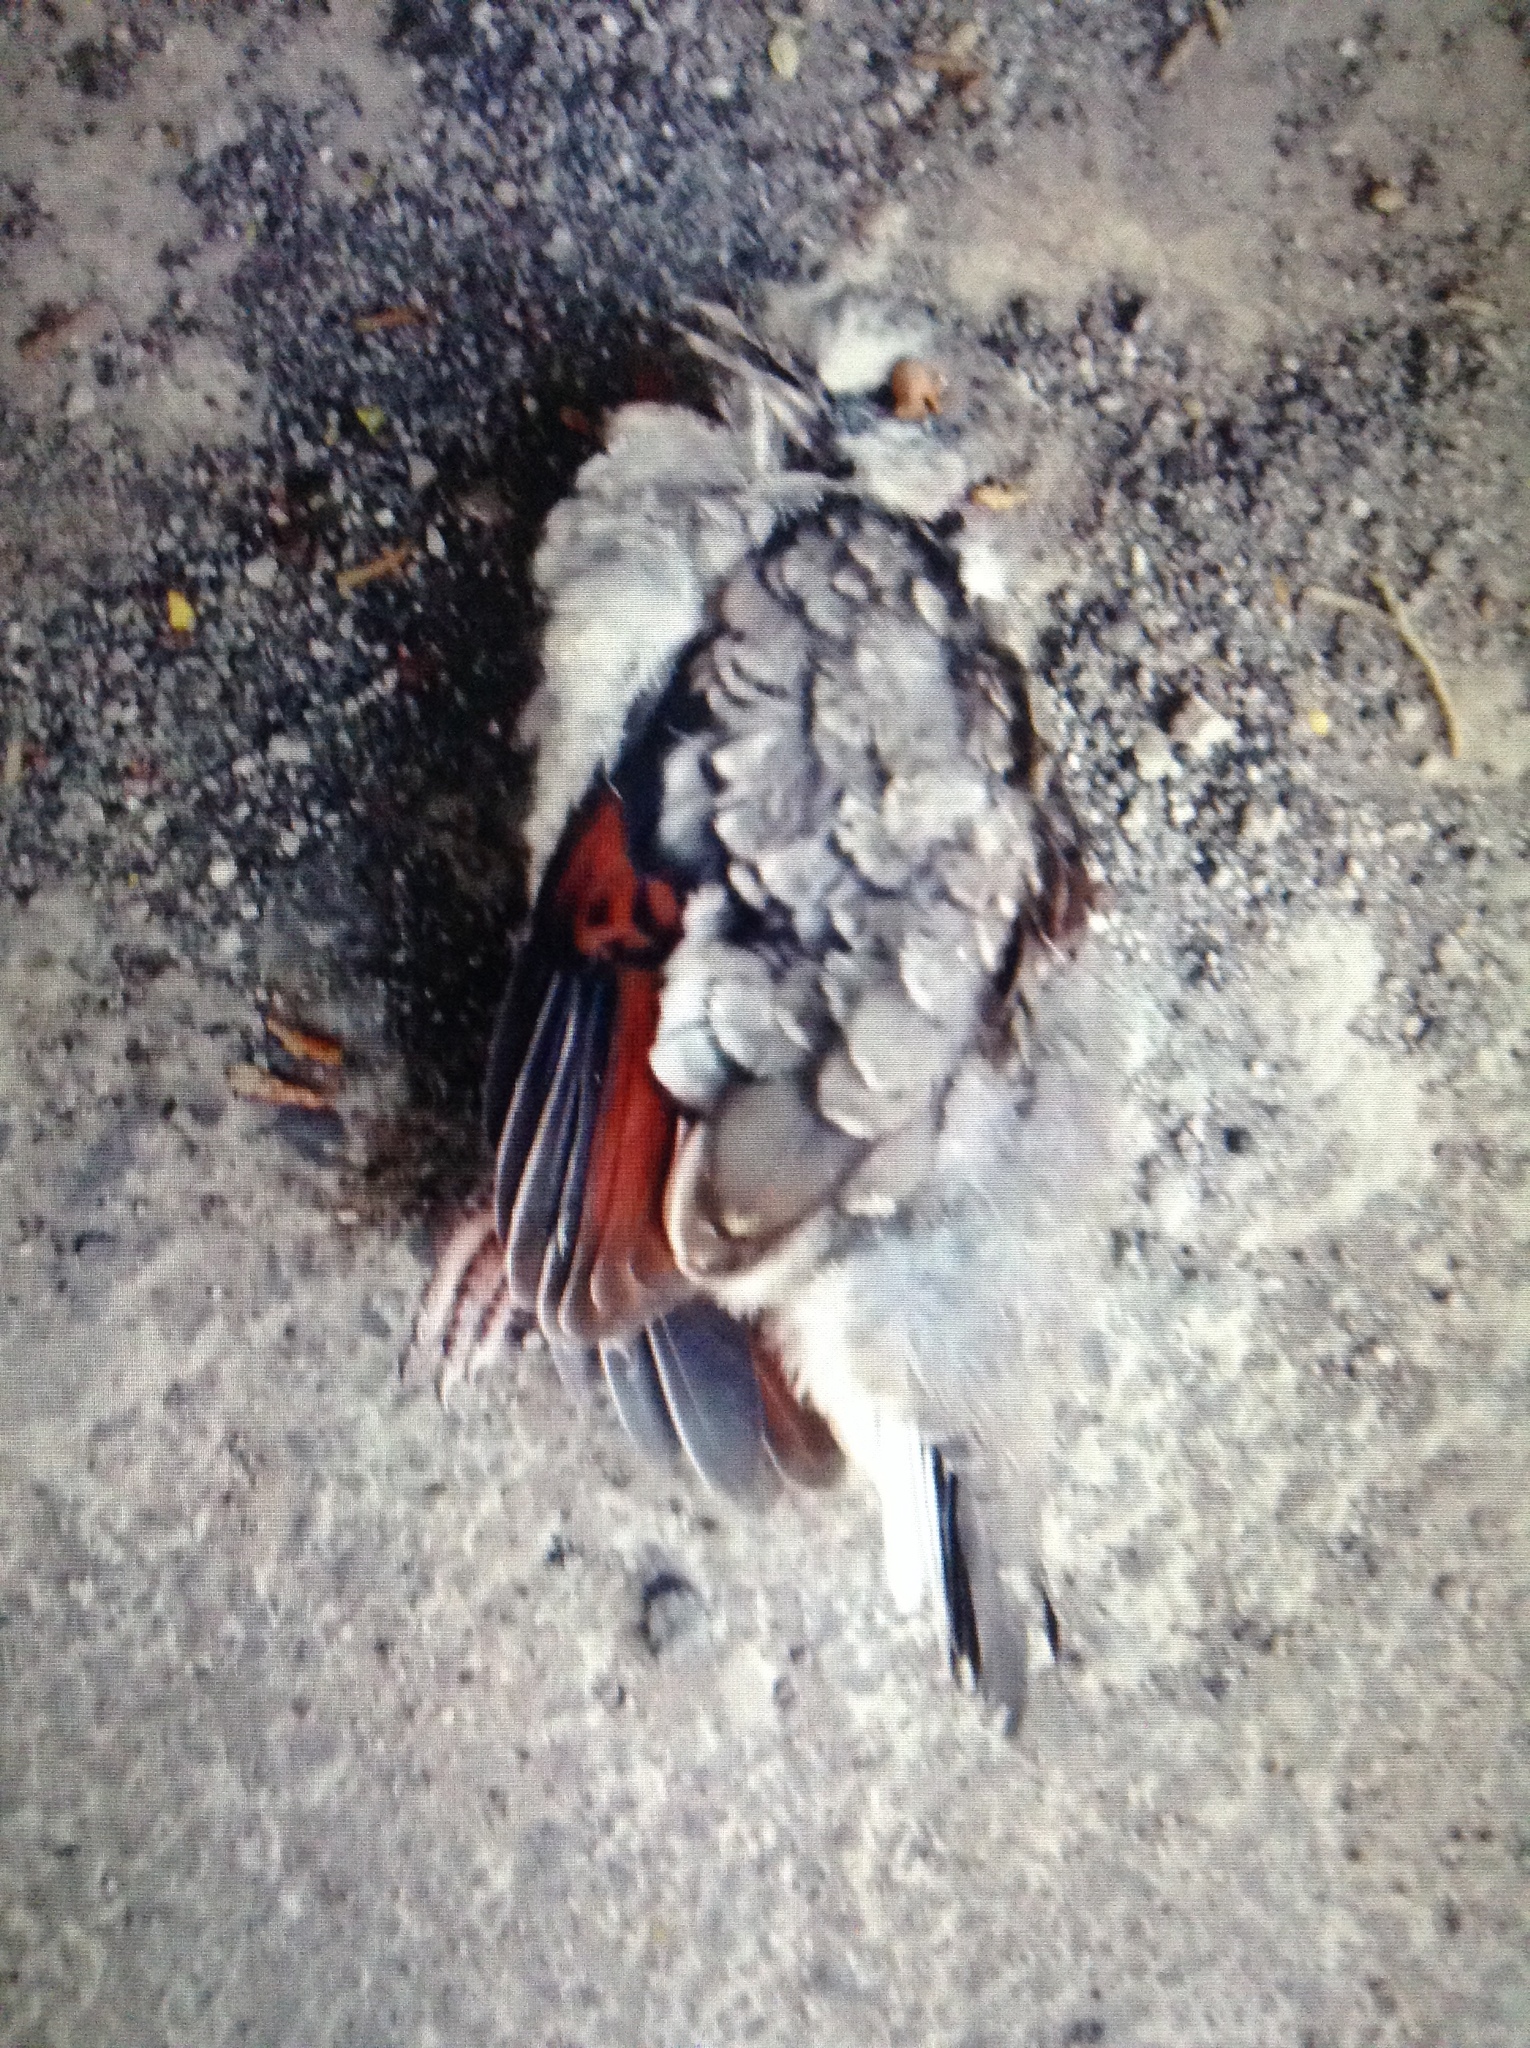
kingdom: Animalia
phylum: Chordata
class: Aves
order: Columbiformes
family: Columbidae
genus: Columbina
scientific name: Columbina inca
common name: Inca dove
